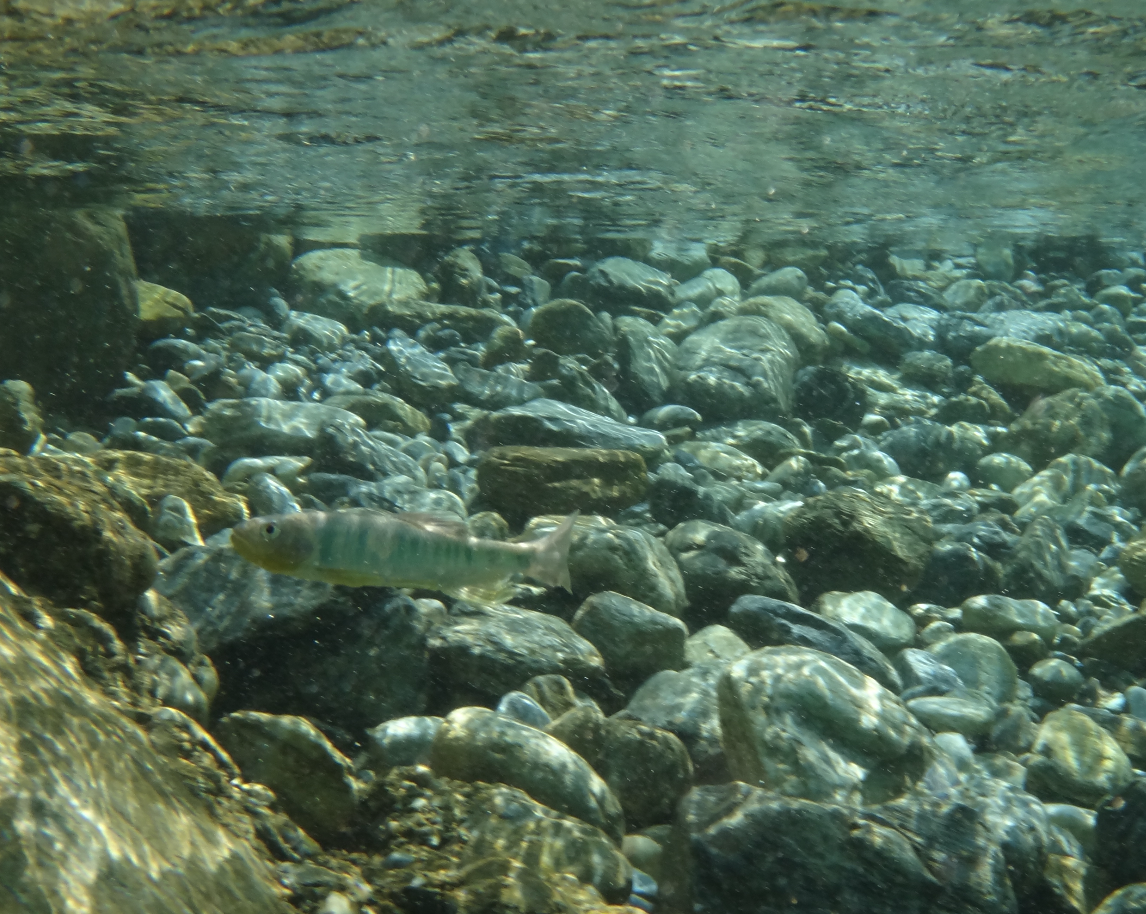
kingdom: Animalia
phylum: Chordata
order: Cypriniformes
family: Cyprinidae
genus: Opsariichthys
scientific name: Opsariichthys pachycephalus
